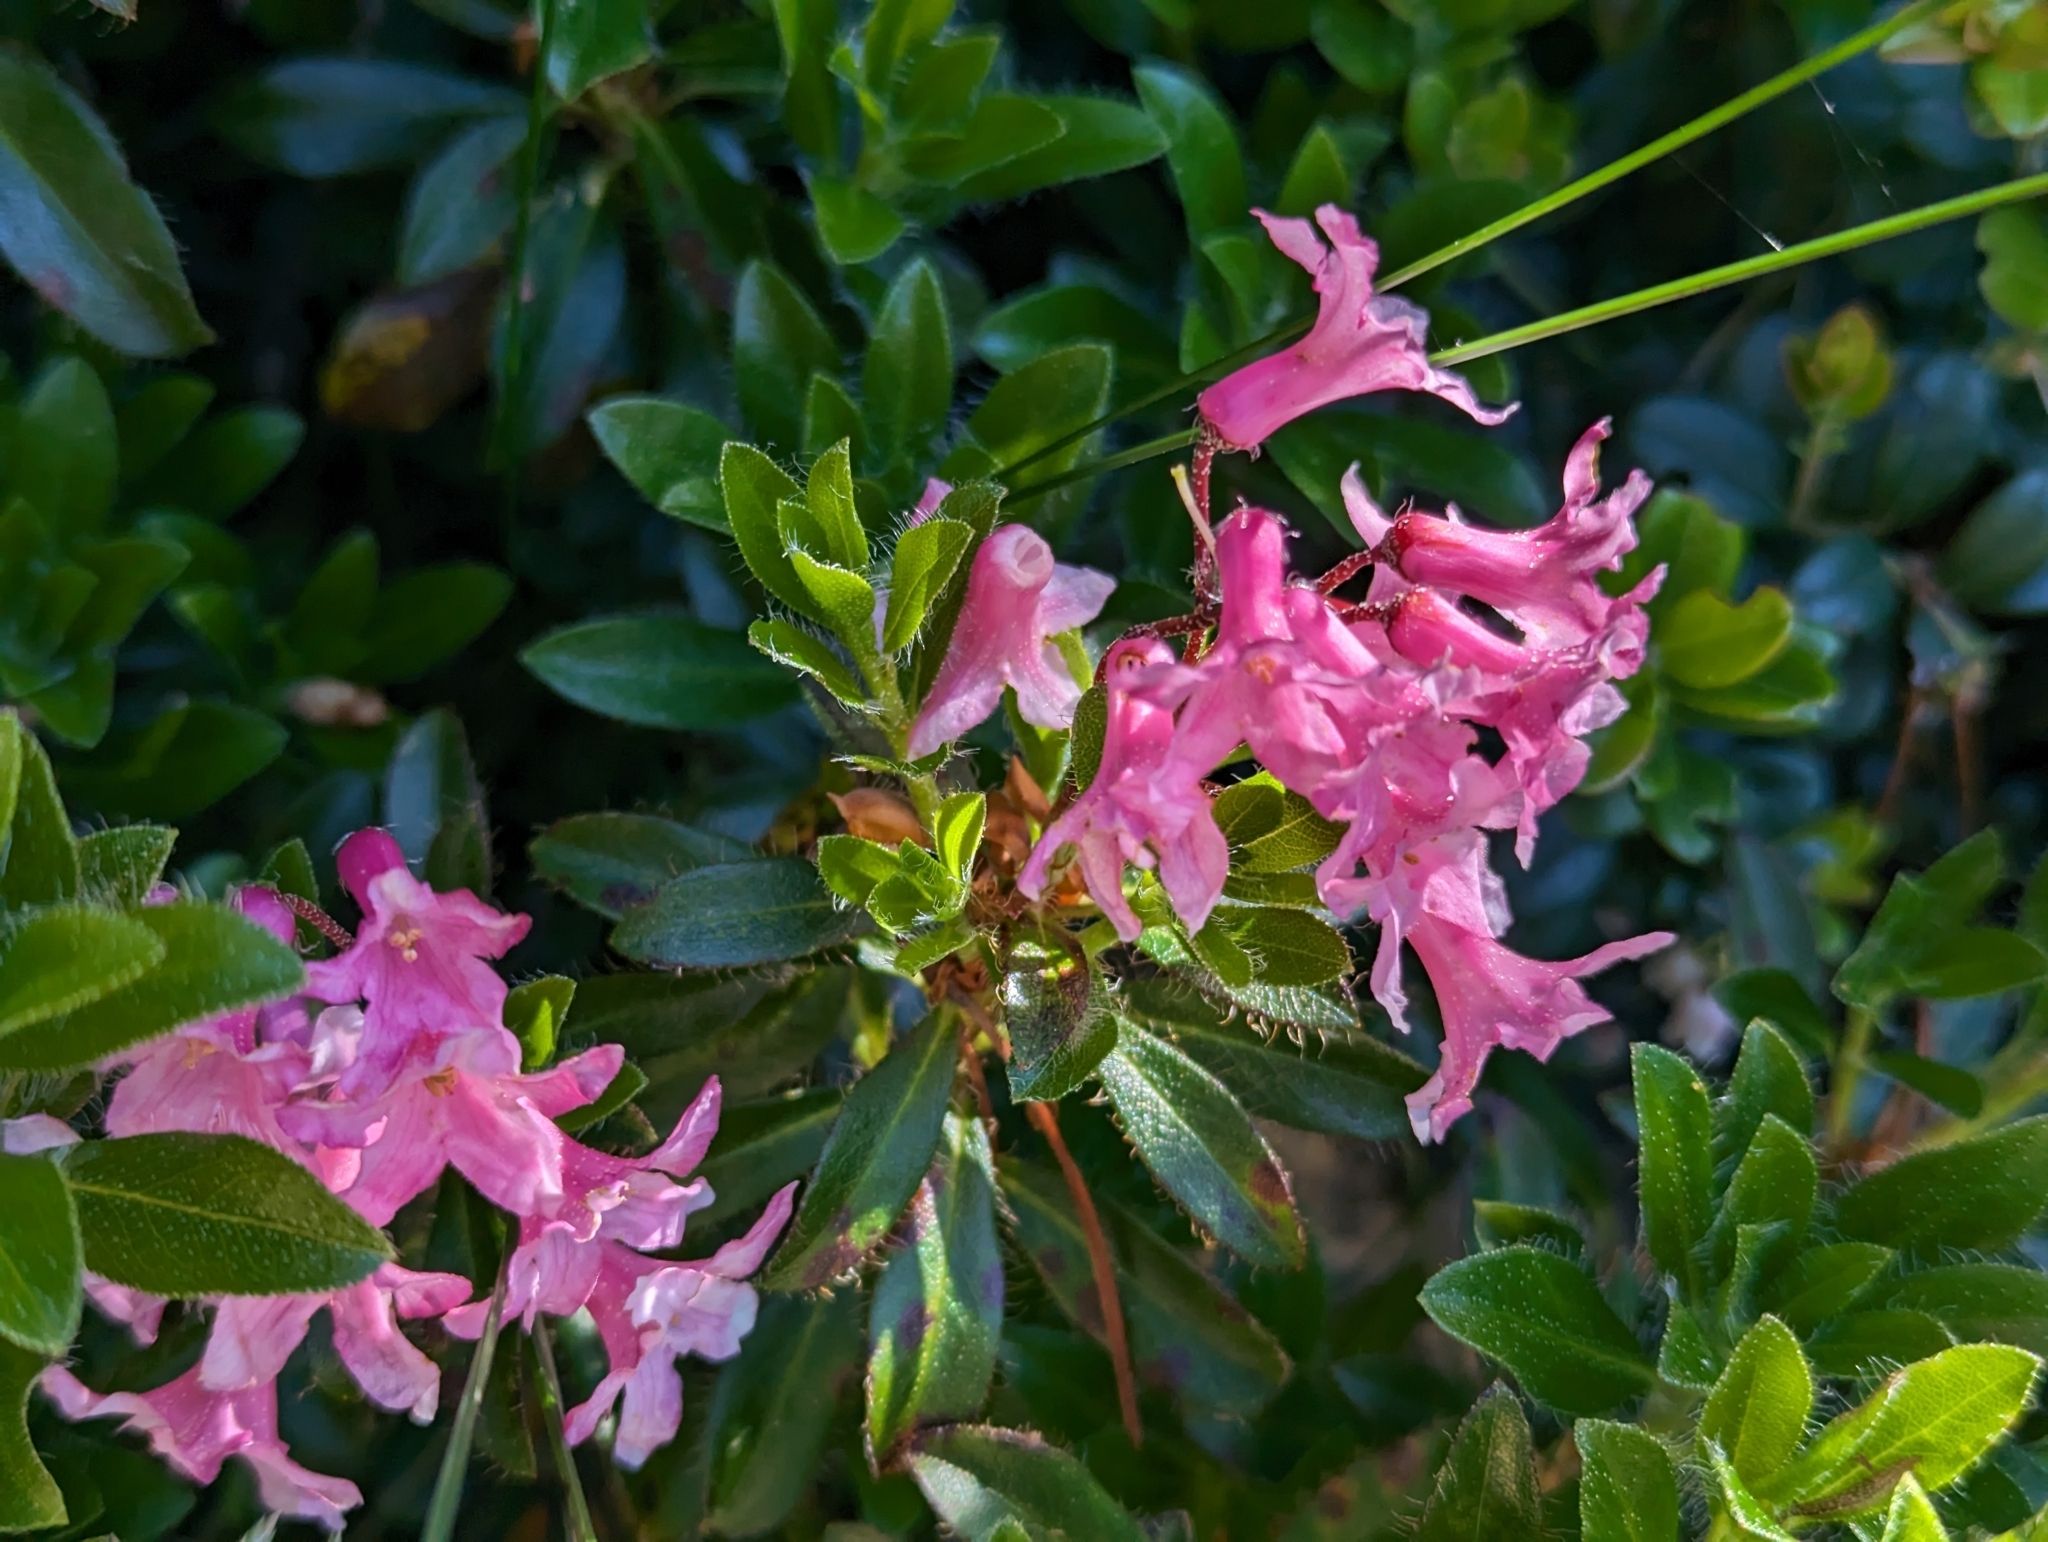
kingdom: Plantae
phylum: Tracheophyta
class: Magnoliopsida
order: Ericales
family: Ericaceae
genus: Rhododendron
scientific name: Rhododendron hirsutum
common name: Hairy alpenrose
